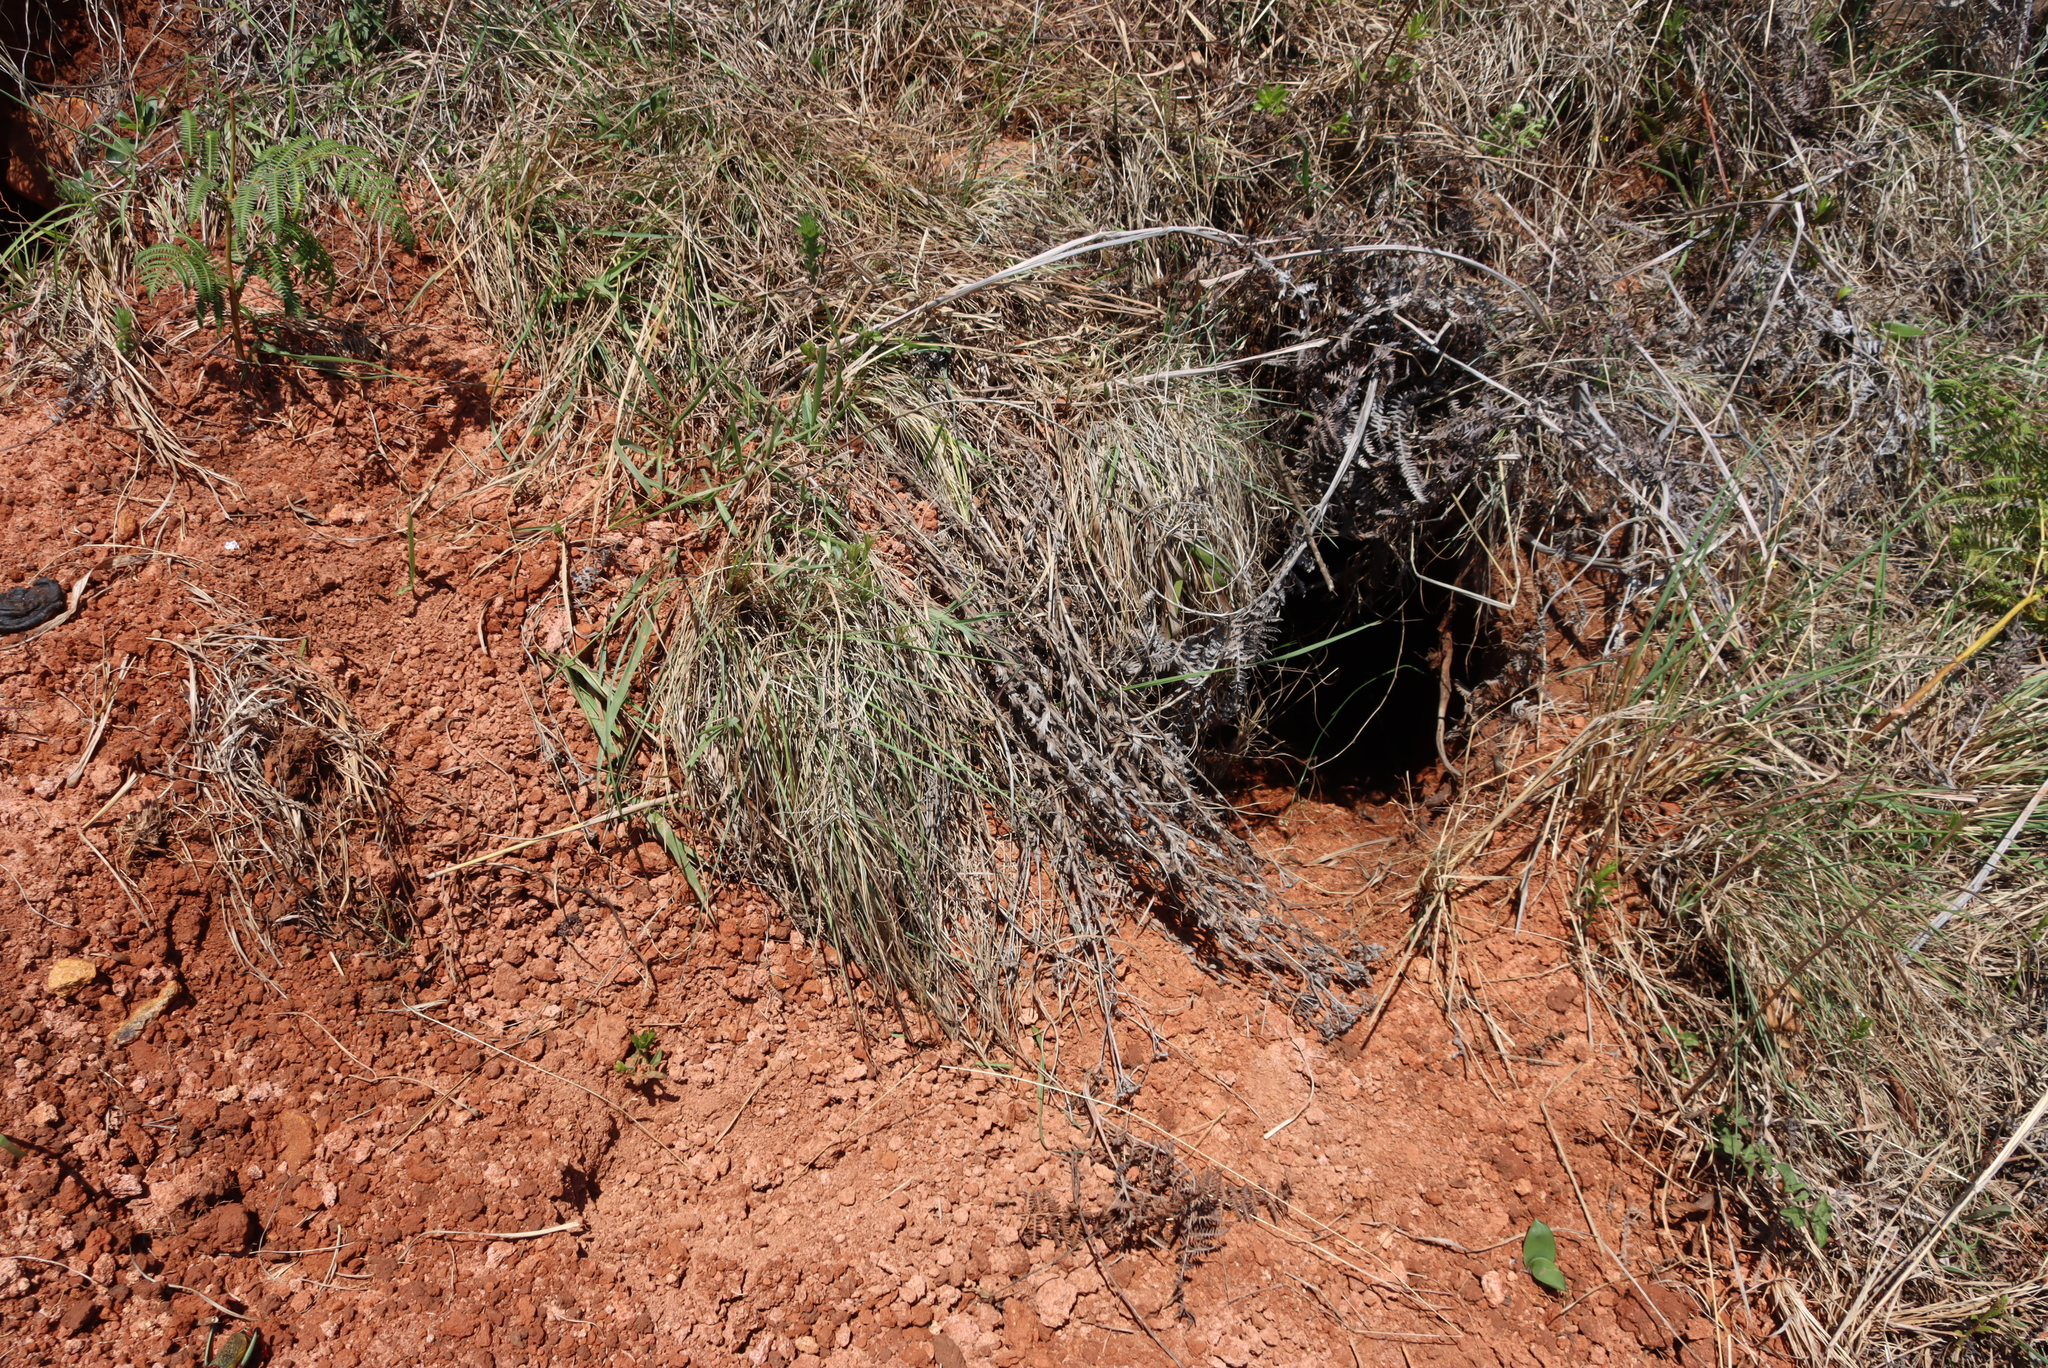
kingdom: Animalia
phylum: Chordata
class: Mammalia
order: Tubulidentata
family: Orycteropodidae
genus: Orycteropus
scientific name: Orycteropus afer
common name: Aardvark
